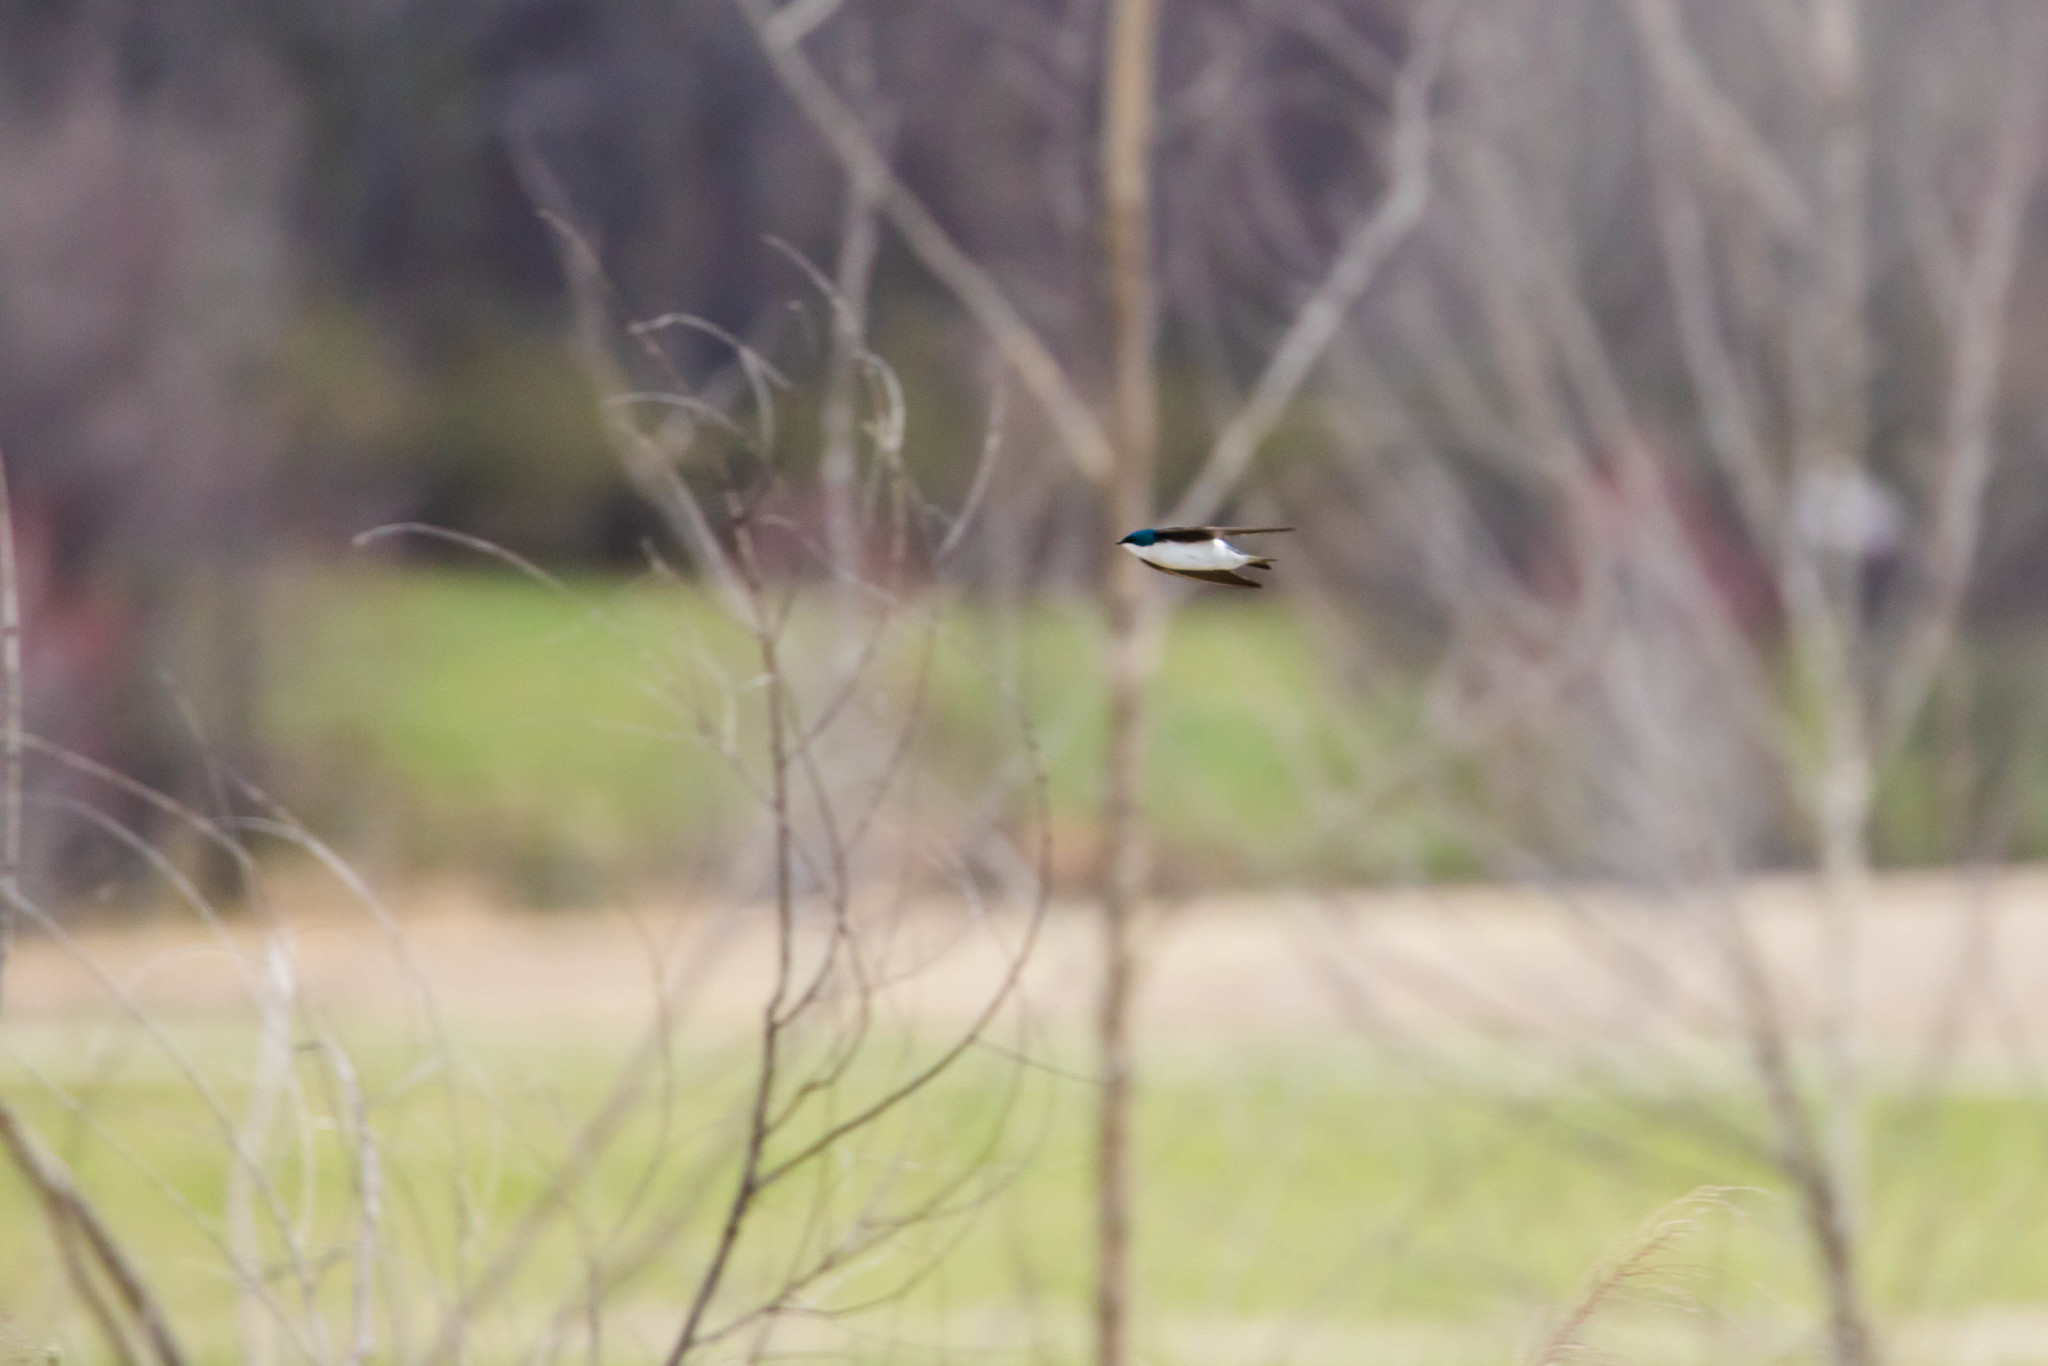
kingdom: Animalia
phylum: Chordata
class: Aves
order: Passeriformes
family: Hirundinidae
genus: Tachycineta
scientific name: Tachycineta bicolor
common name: Tree swallow
